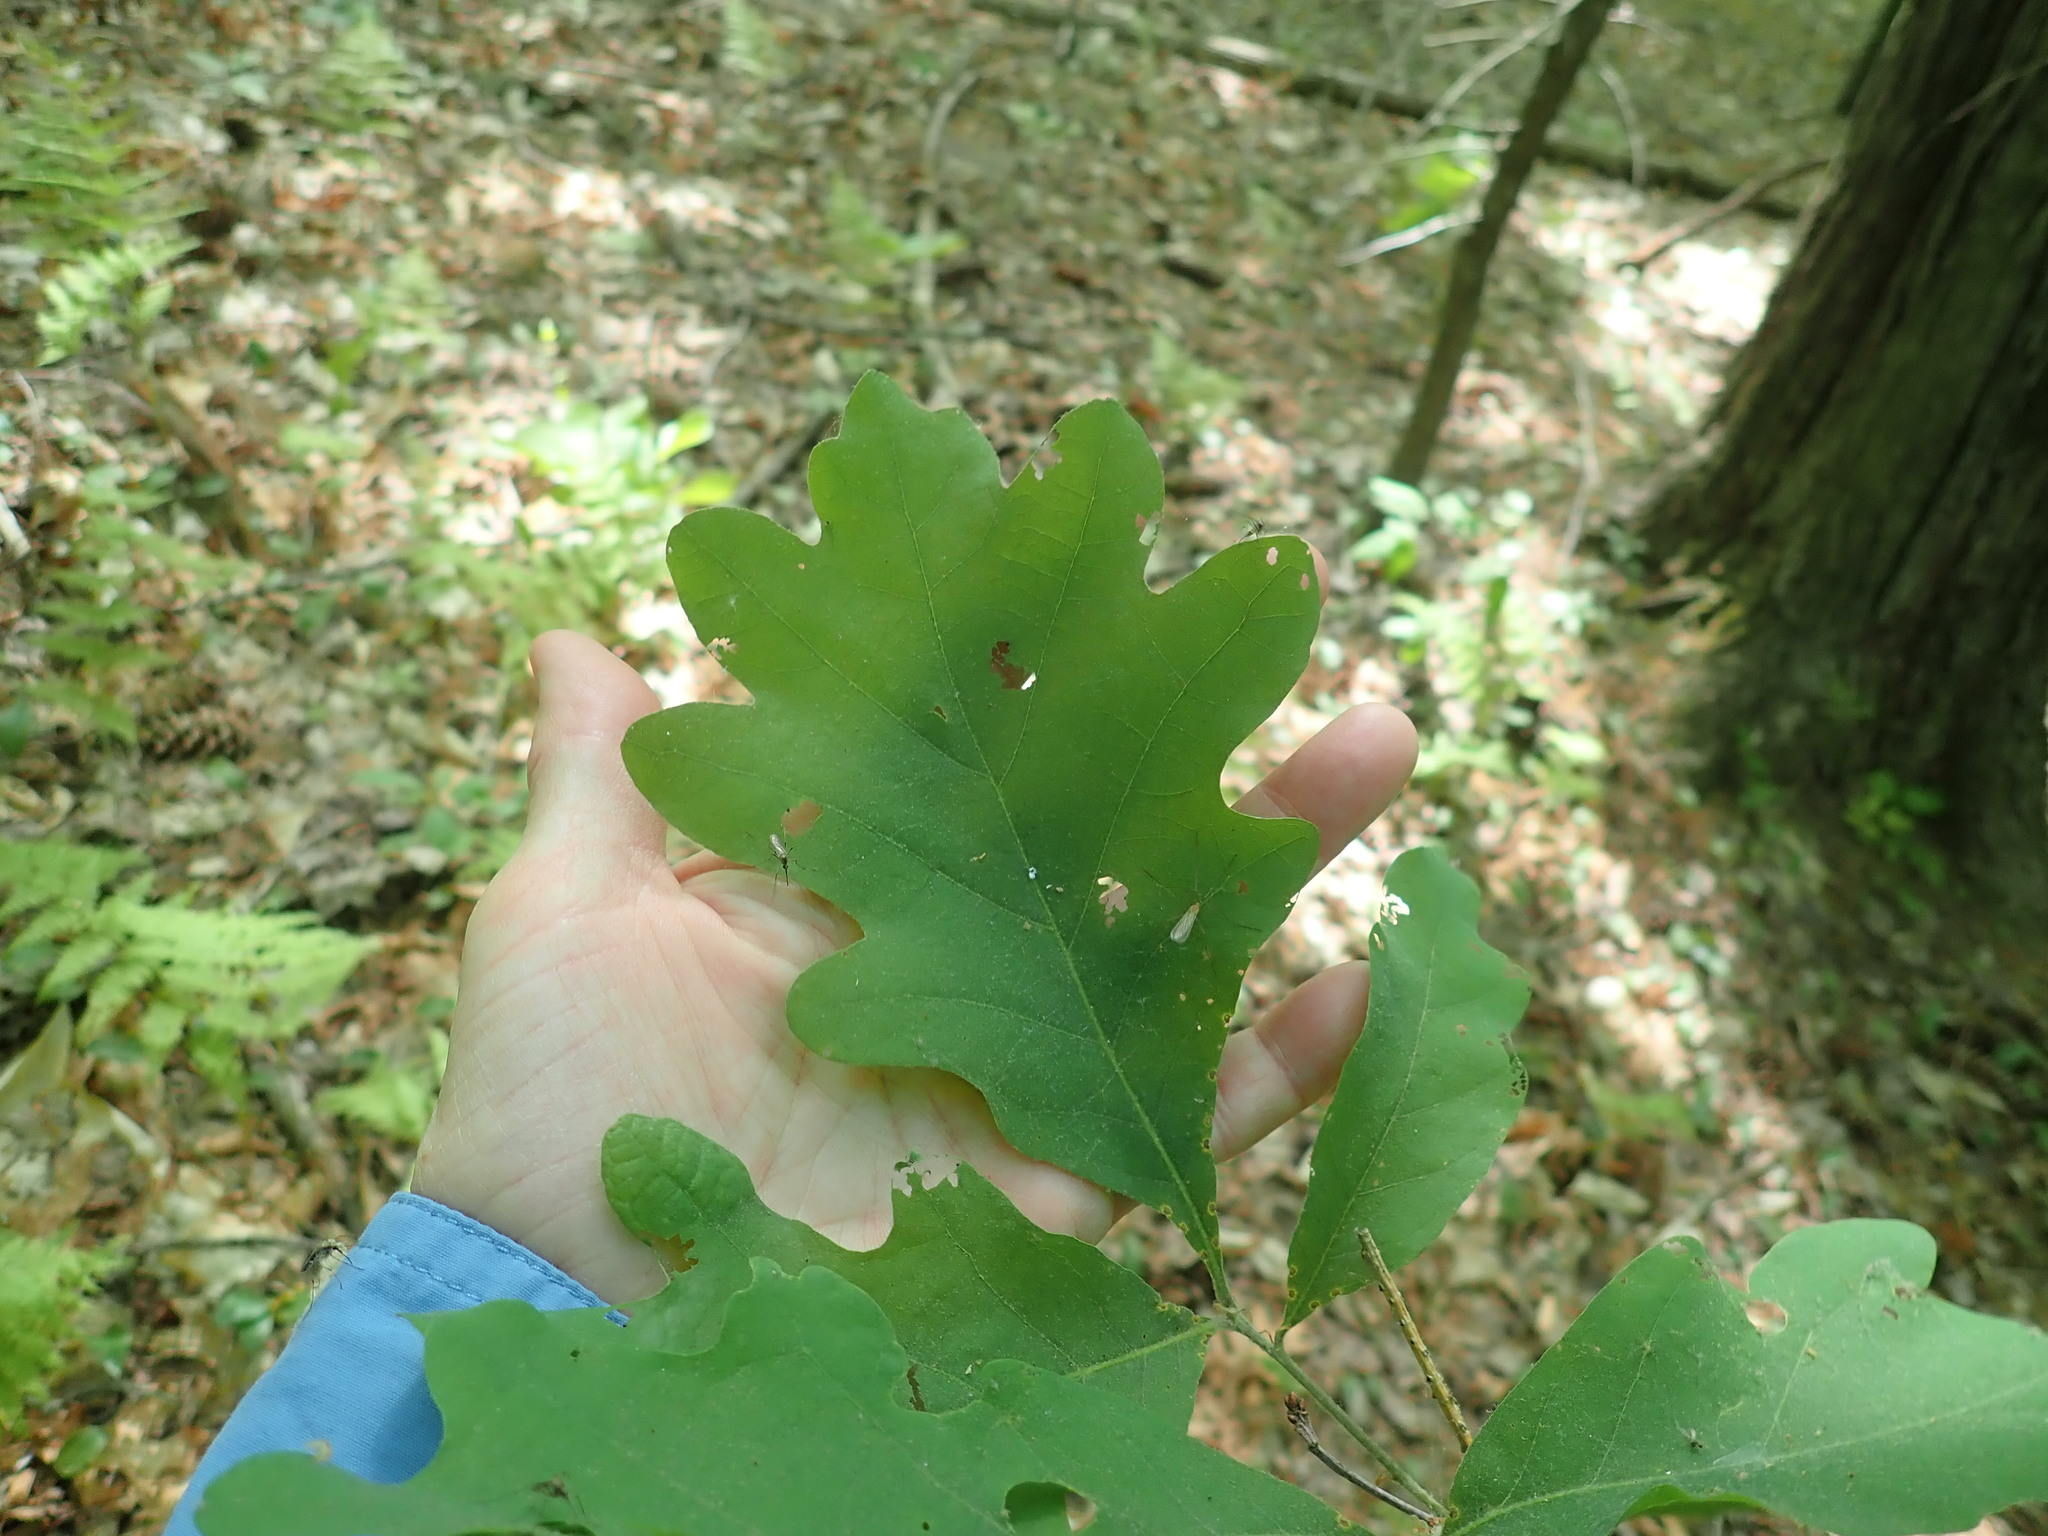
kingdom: Plantae
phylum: Tracheophyta
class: Magnoliopsida
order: Fagales
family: Fagaceae
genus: Quercus
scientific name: Quercus alba
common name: White oak
